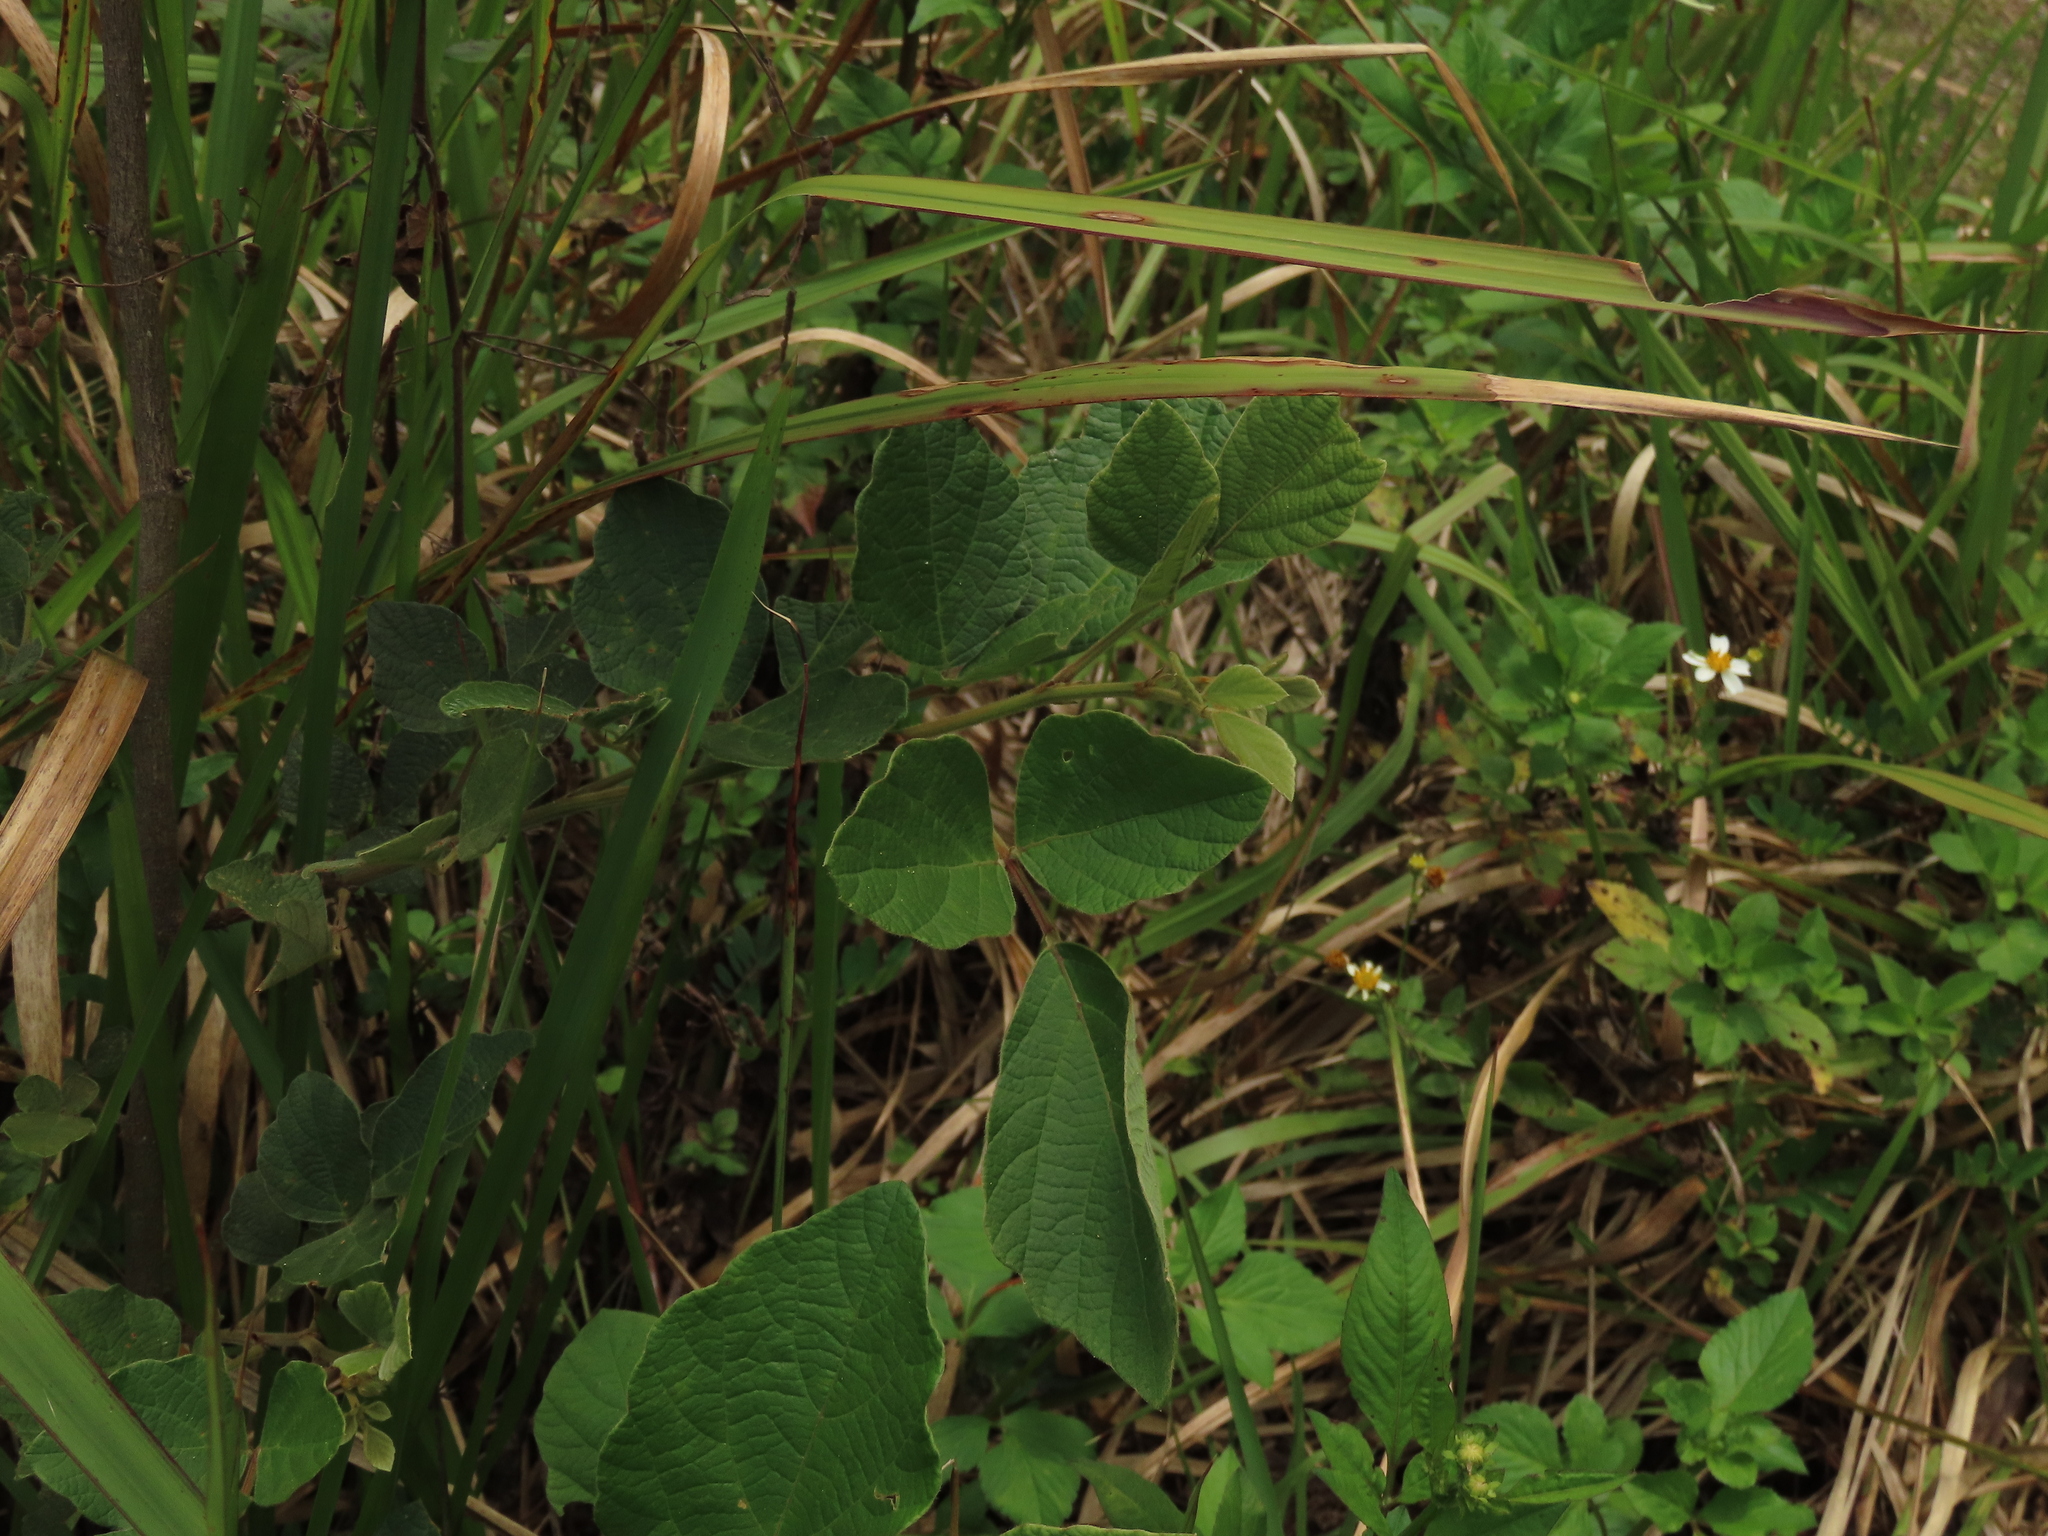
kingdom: Plantae
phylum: Tracheophyta
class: Magnoliopsida
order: Fabales
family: Fabaceae
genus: Puhuaea
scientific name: Puhuaea sequax
